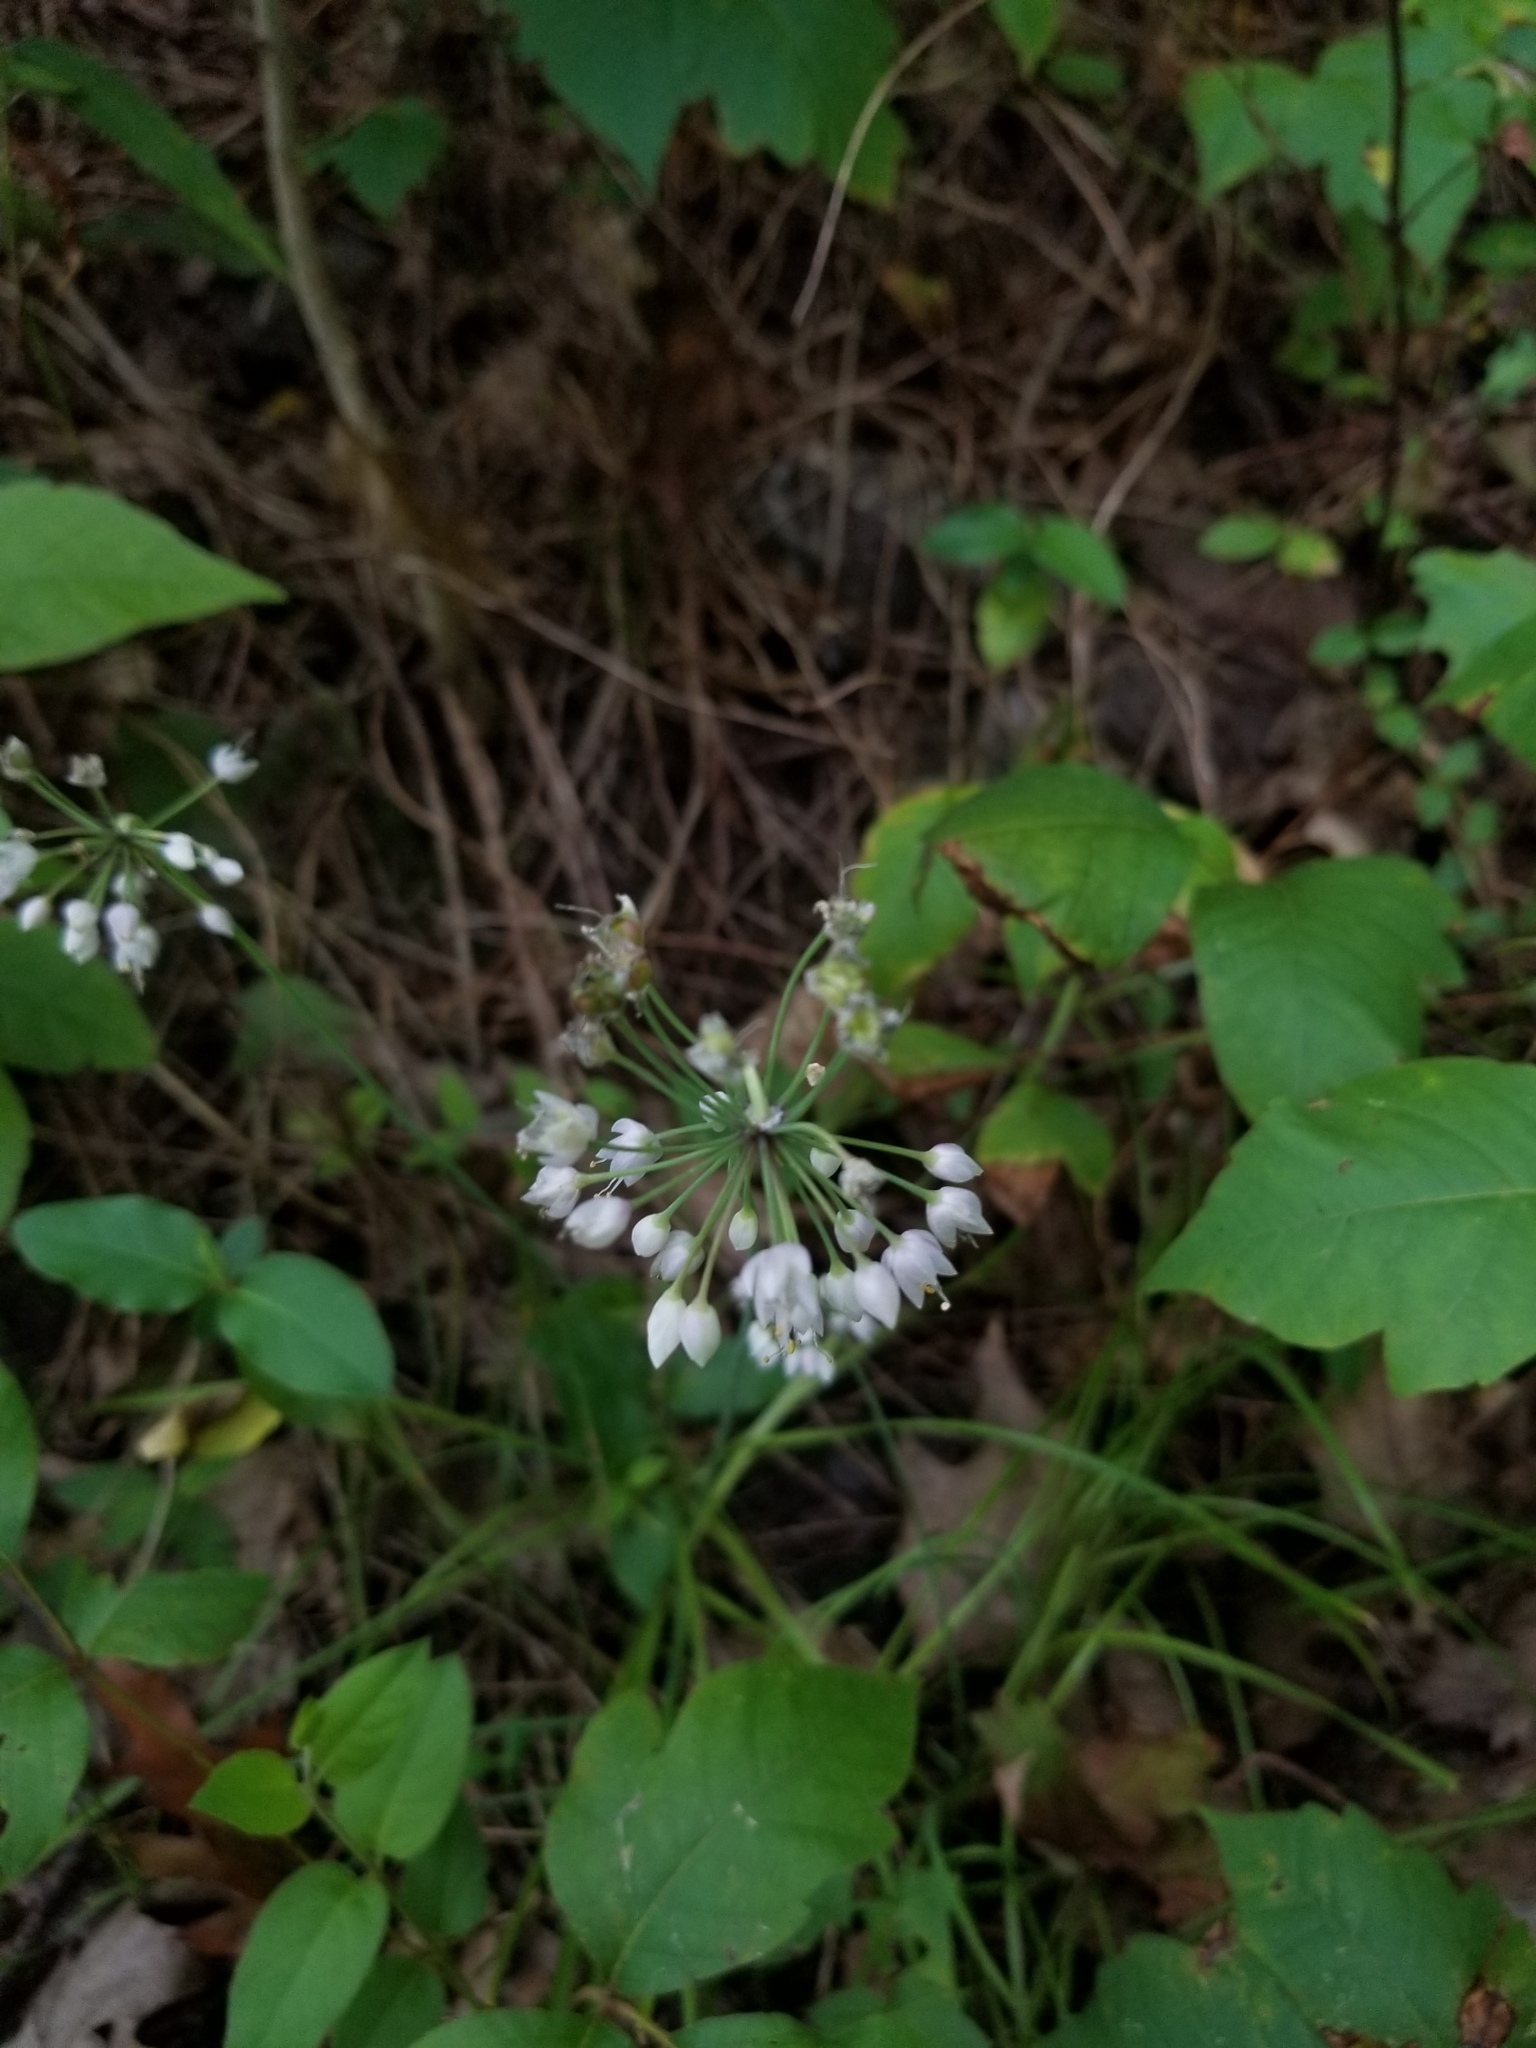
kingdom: Plantae
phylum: Tracheophyta
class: Liliopsida
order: Asparagales
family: Amaryllidaceae
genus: Allium
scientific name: Allium cernuum
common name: Nodding onion
